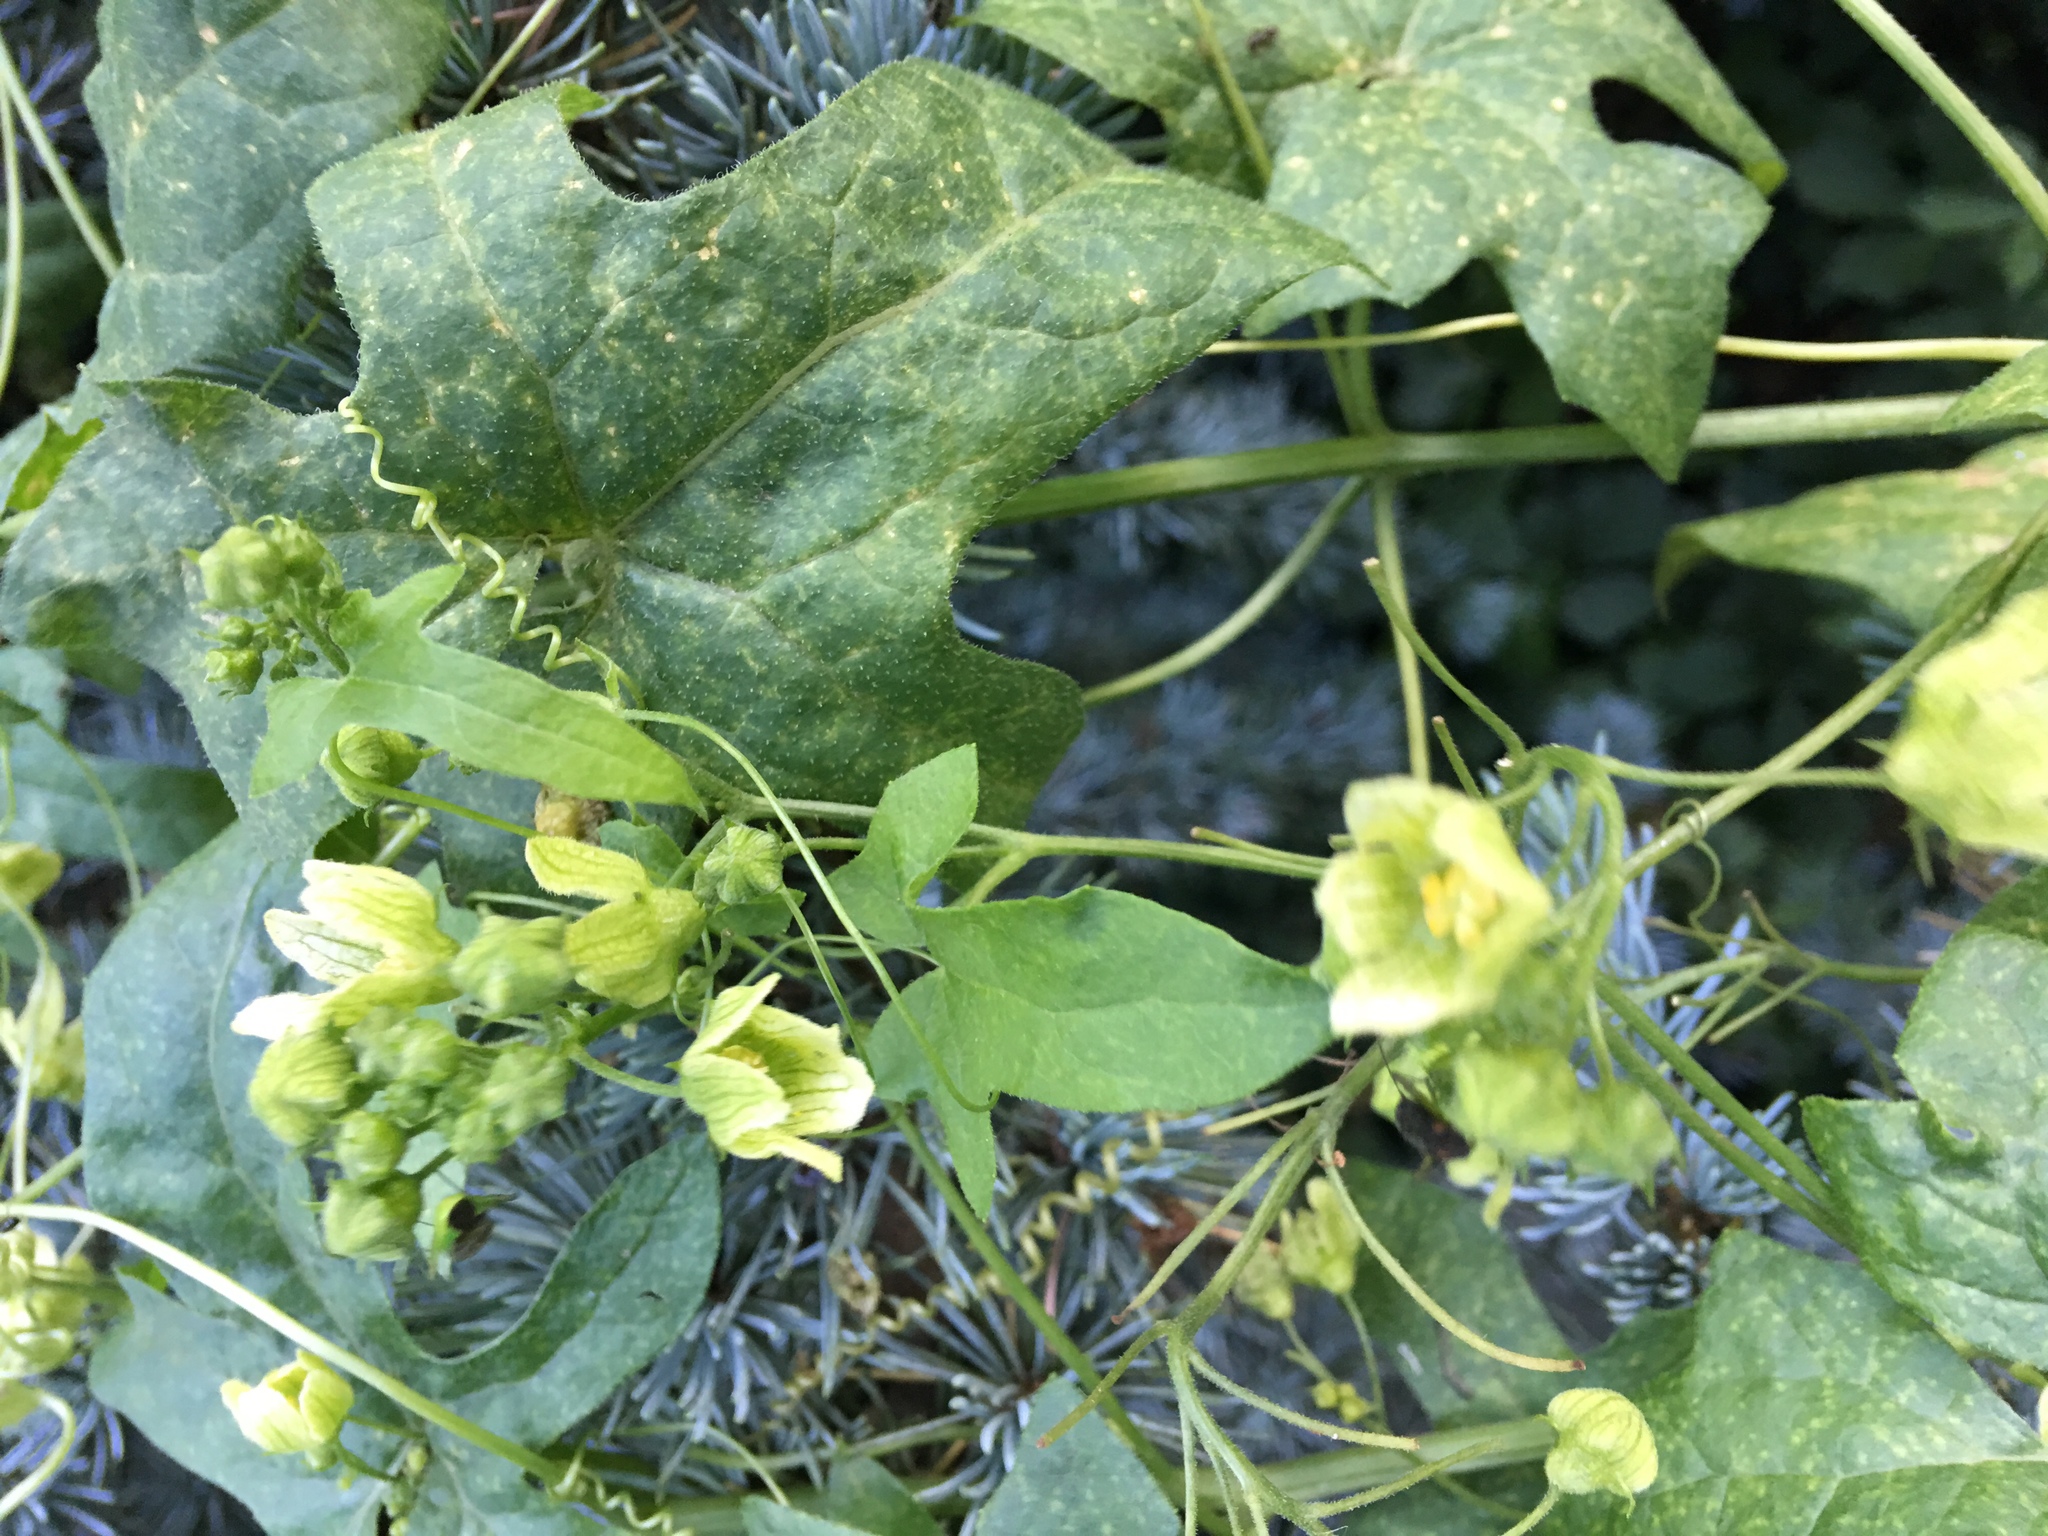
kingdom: Plantae
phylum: Tracheophyta
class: Magnoliopsida
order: Cucurbitales
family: Cucurbitaceae
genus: Bryonia
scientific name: Bryonia cretica
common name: Cretan bryony
